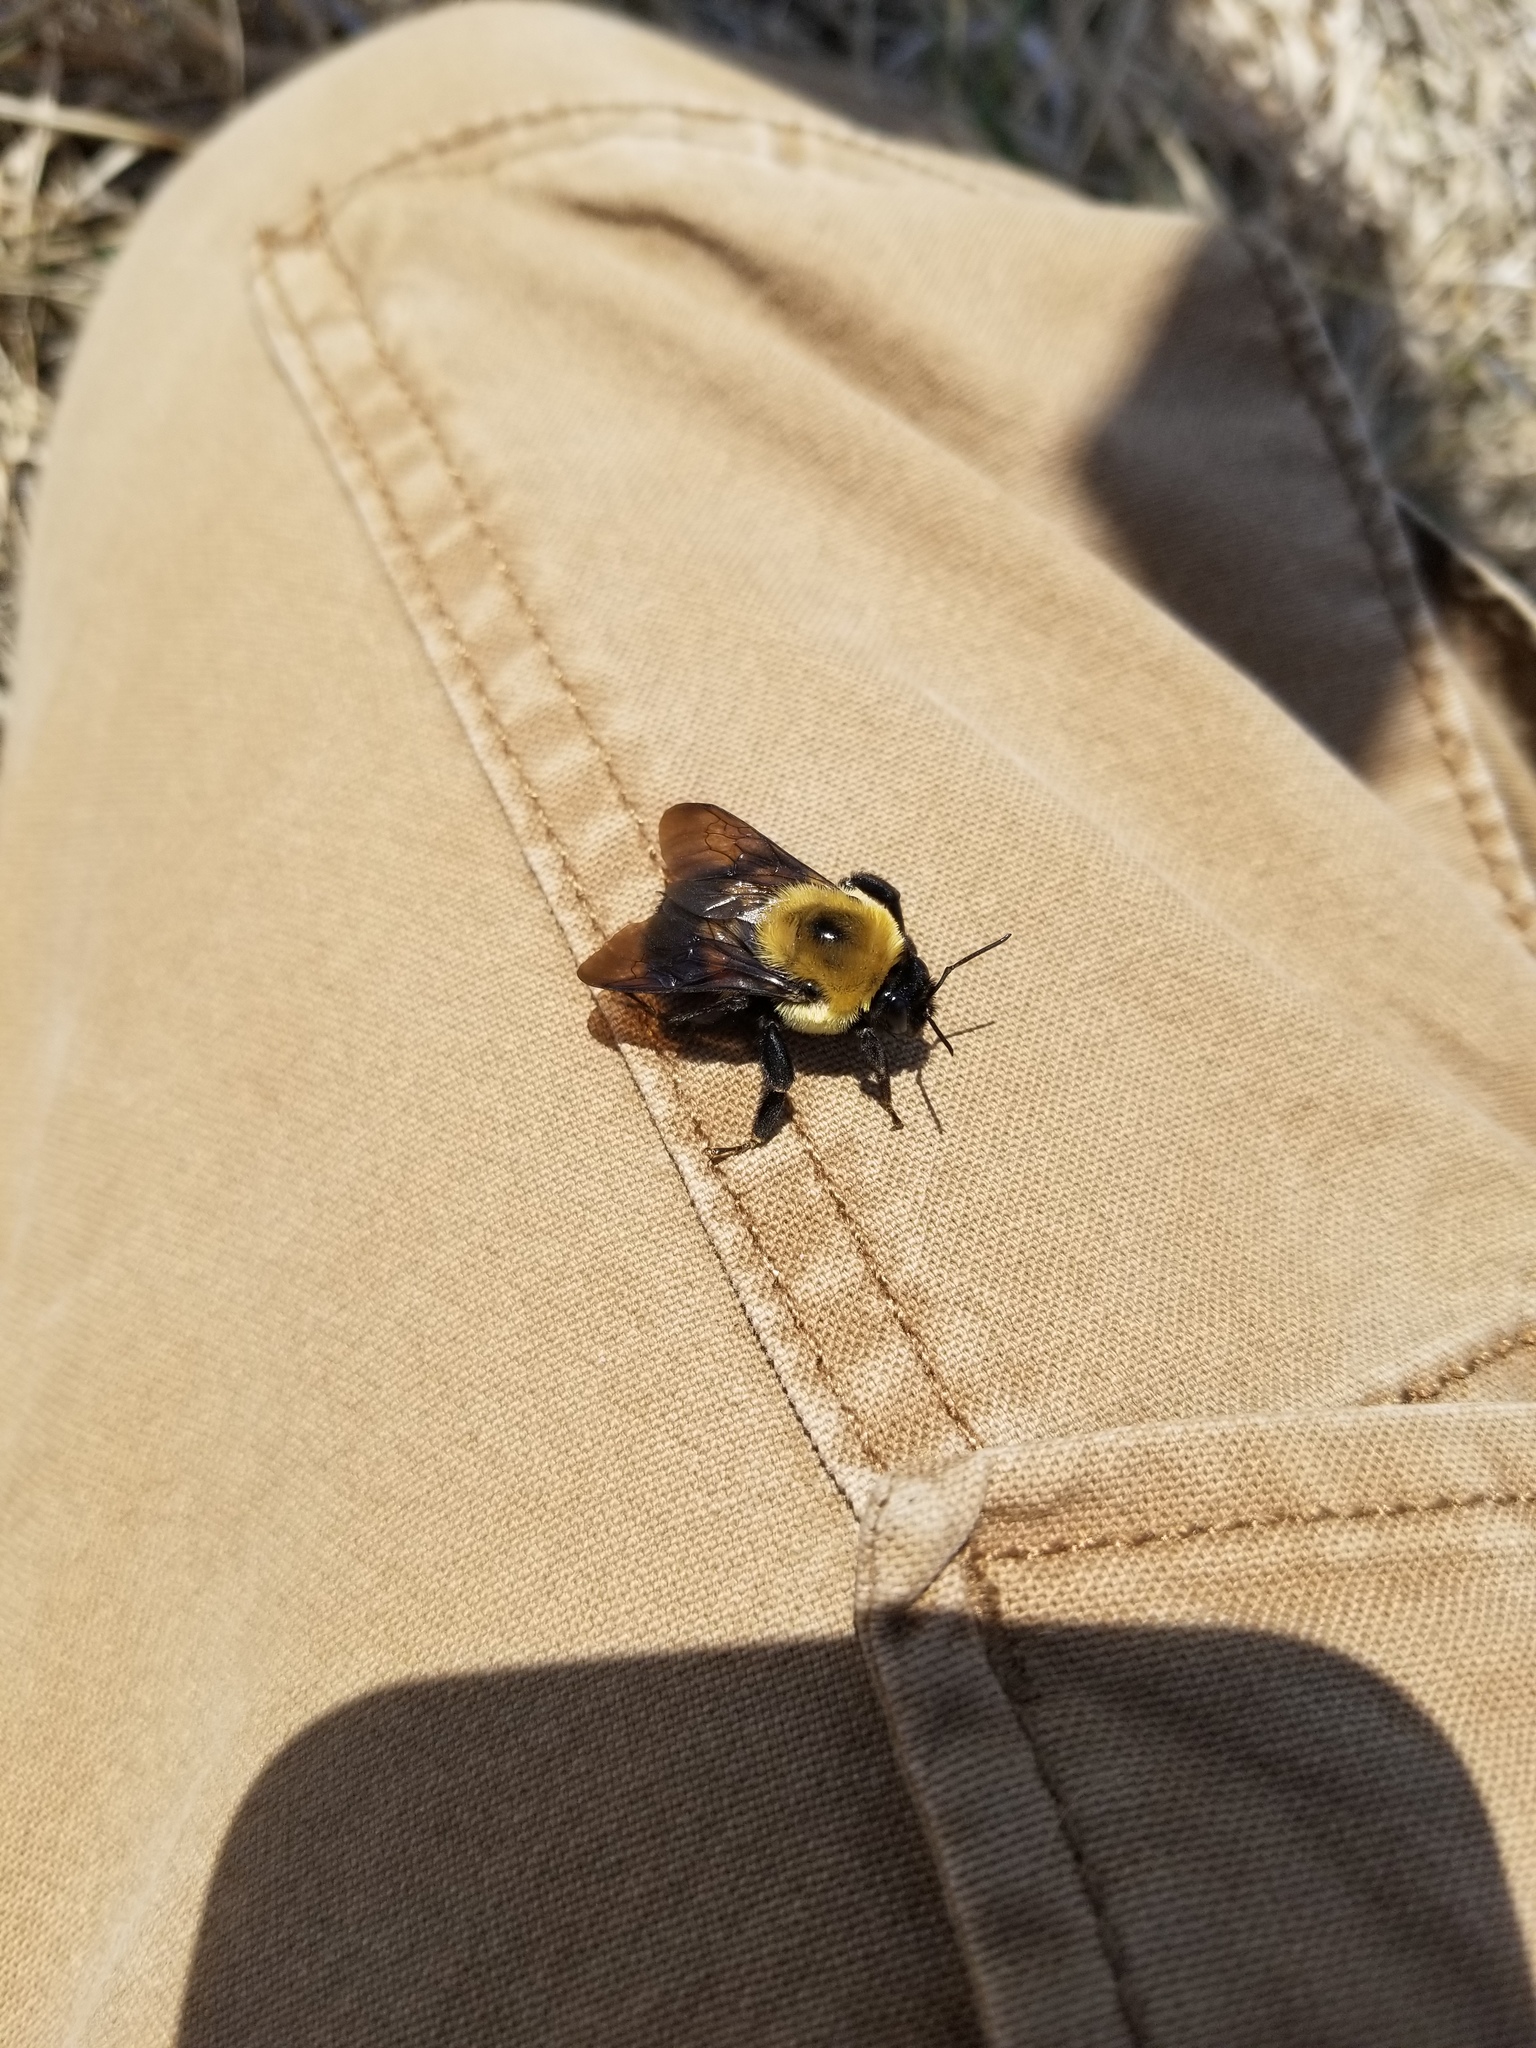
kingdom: Animalia
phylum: Arthropoda
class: Insecta
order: Hymenoptera
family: Apidae
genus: Bombus
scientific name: Bombus griseocollis
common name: Brown-belted bumble bee
